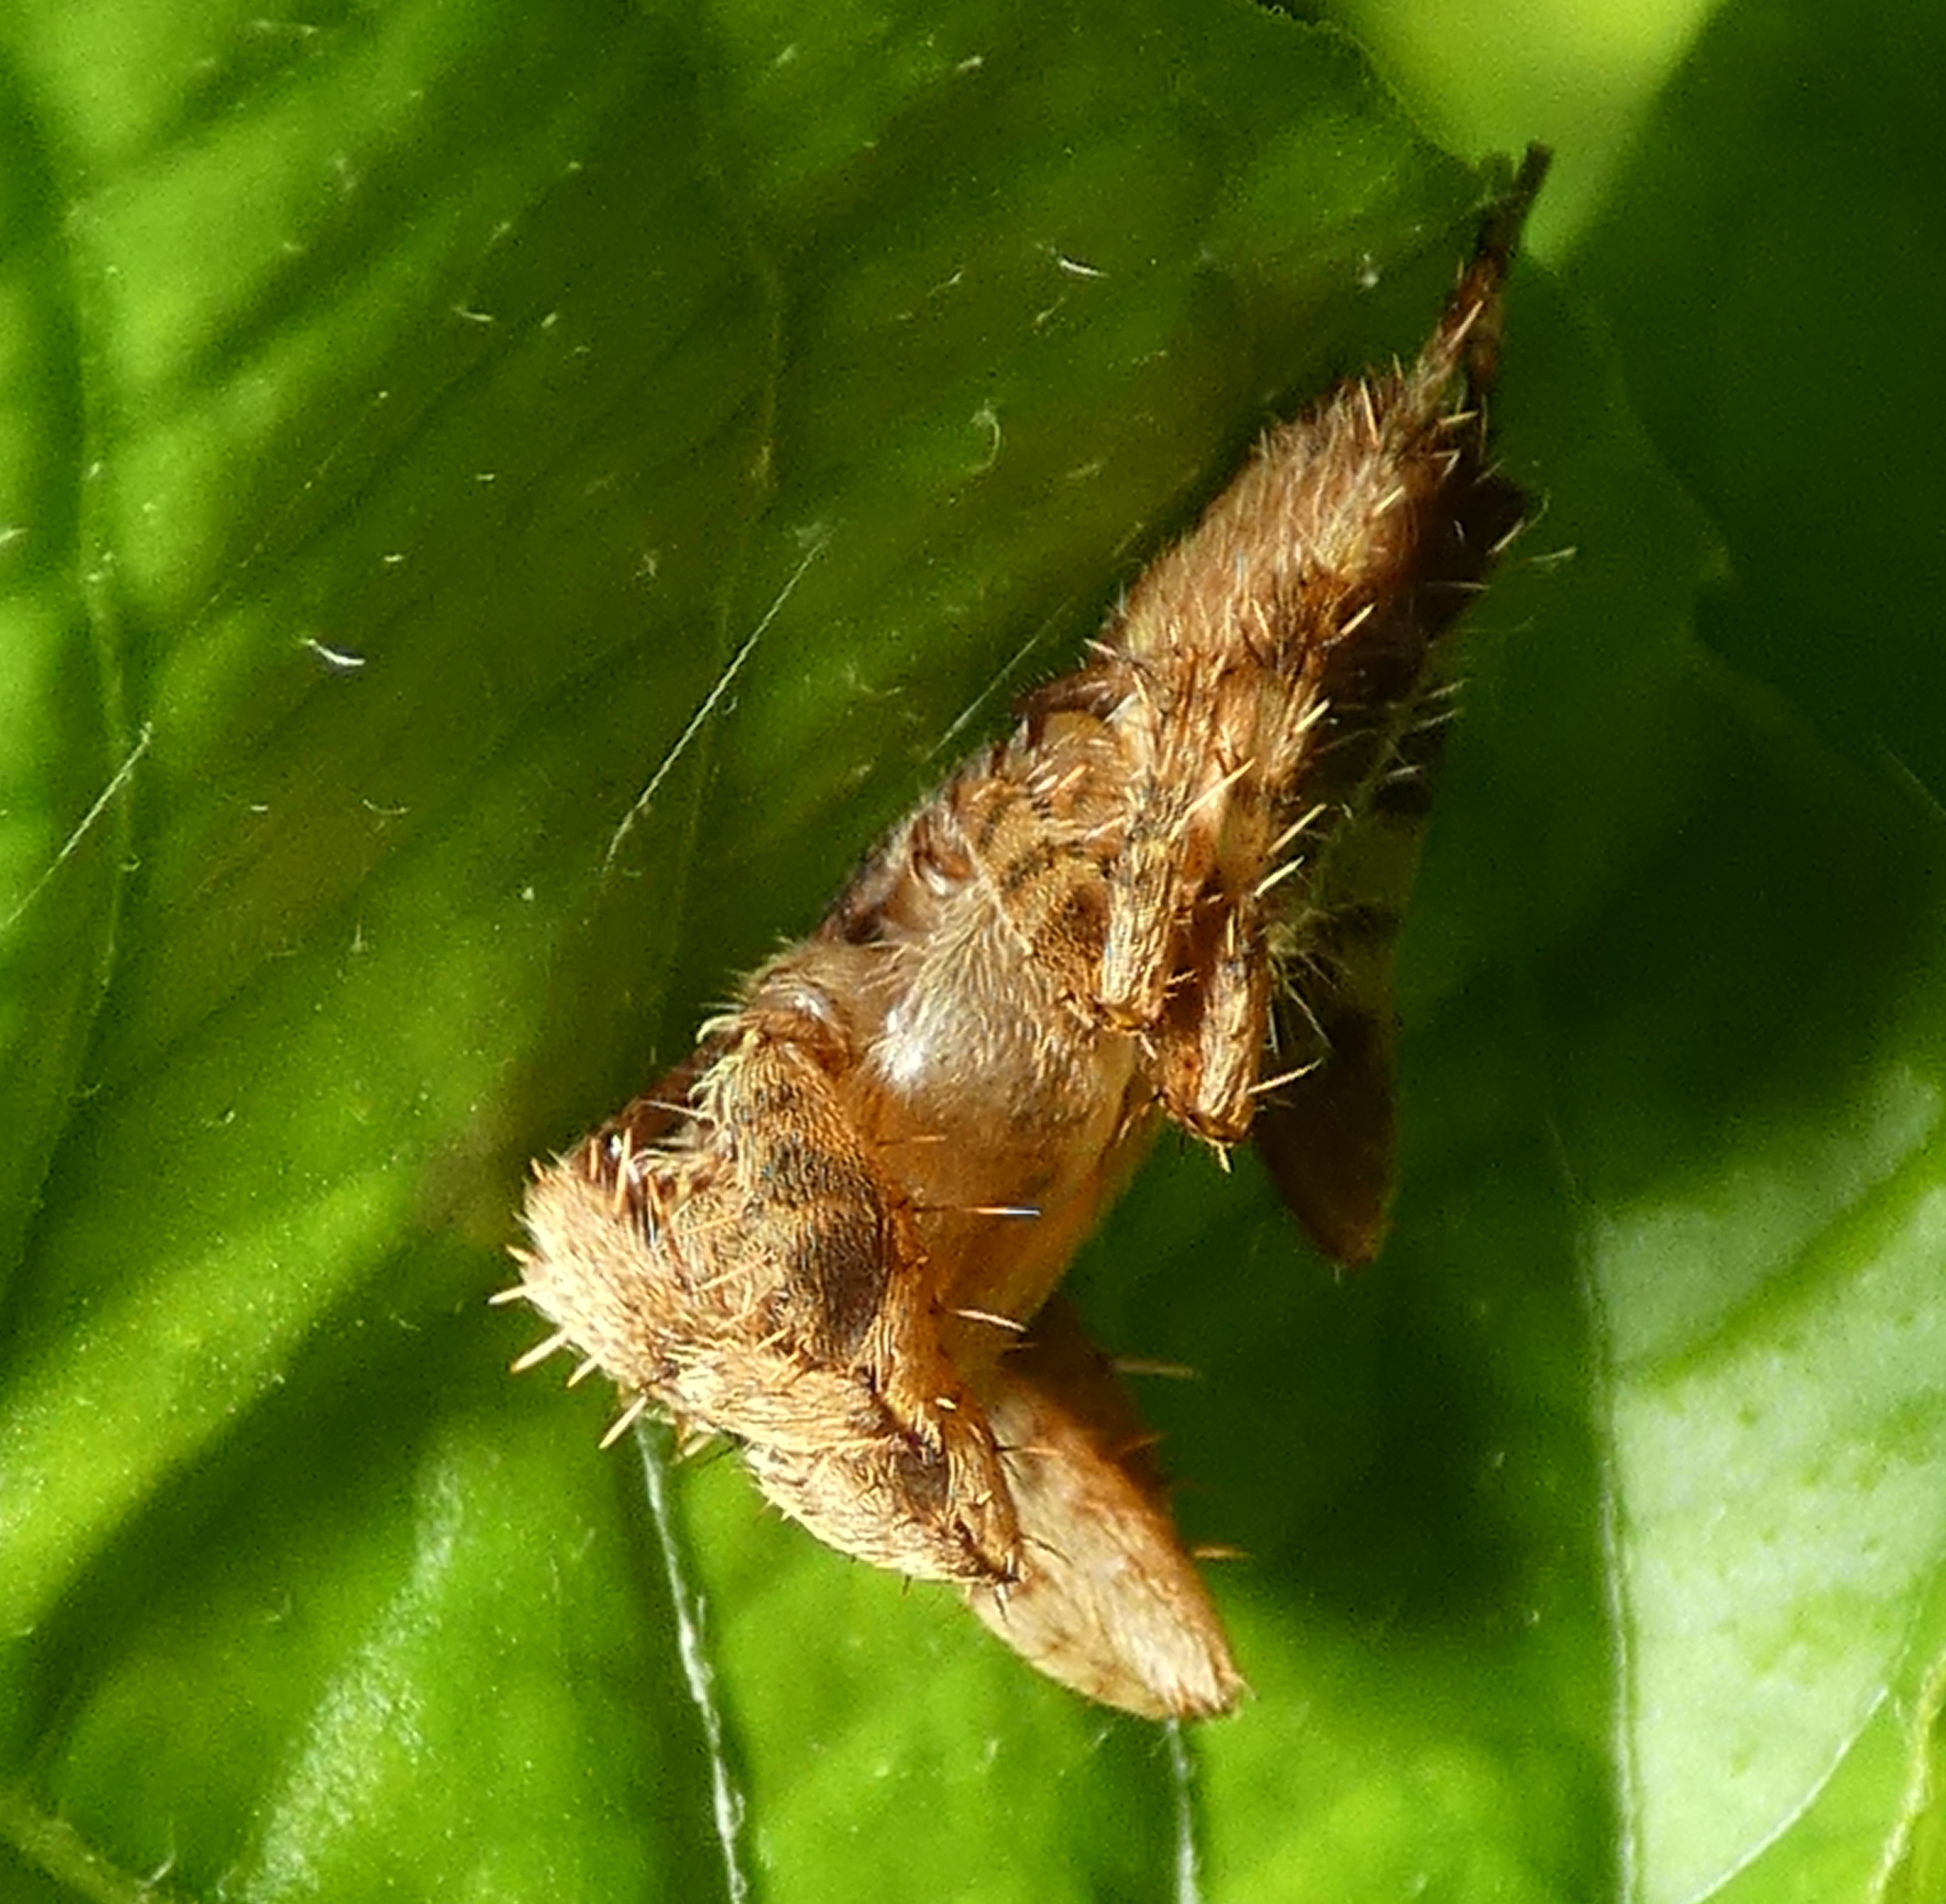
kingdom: Animalia
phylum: Arthropoda
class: Arachnida
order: Araneae
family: Araneidae
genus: Eriophora
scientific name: Eriophora edax
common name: Orb weavers
